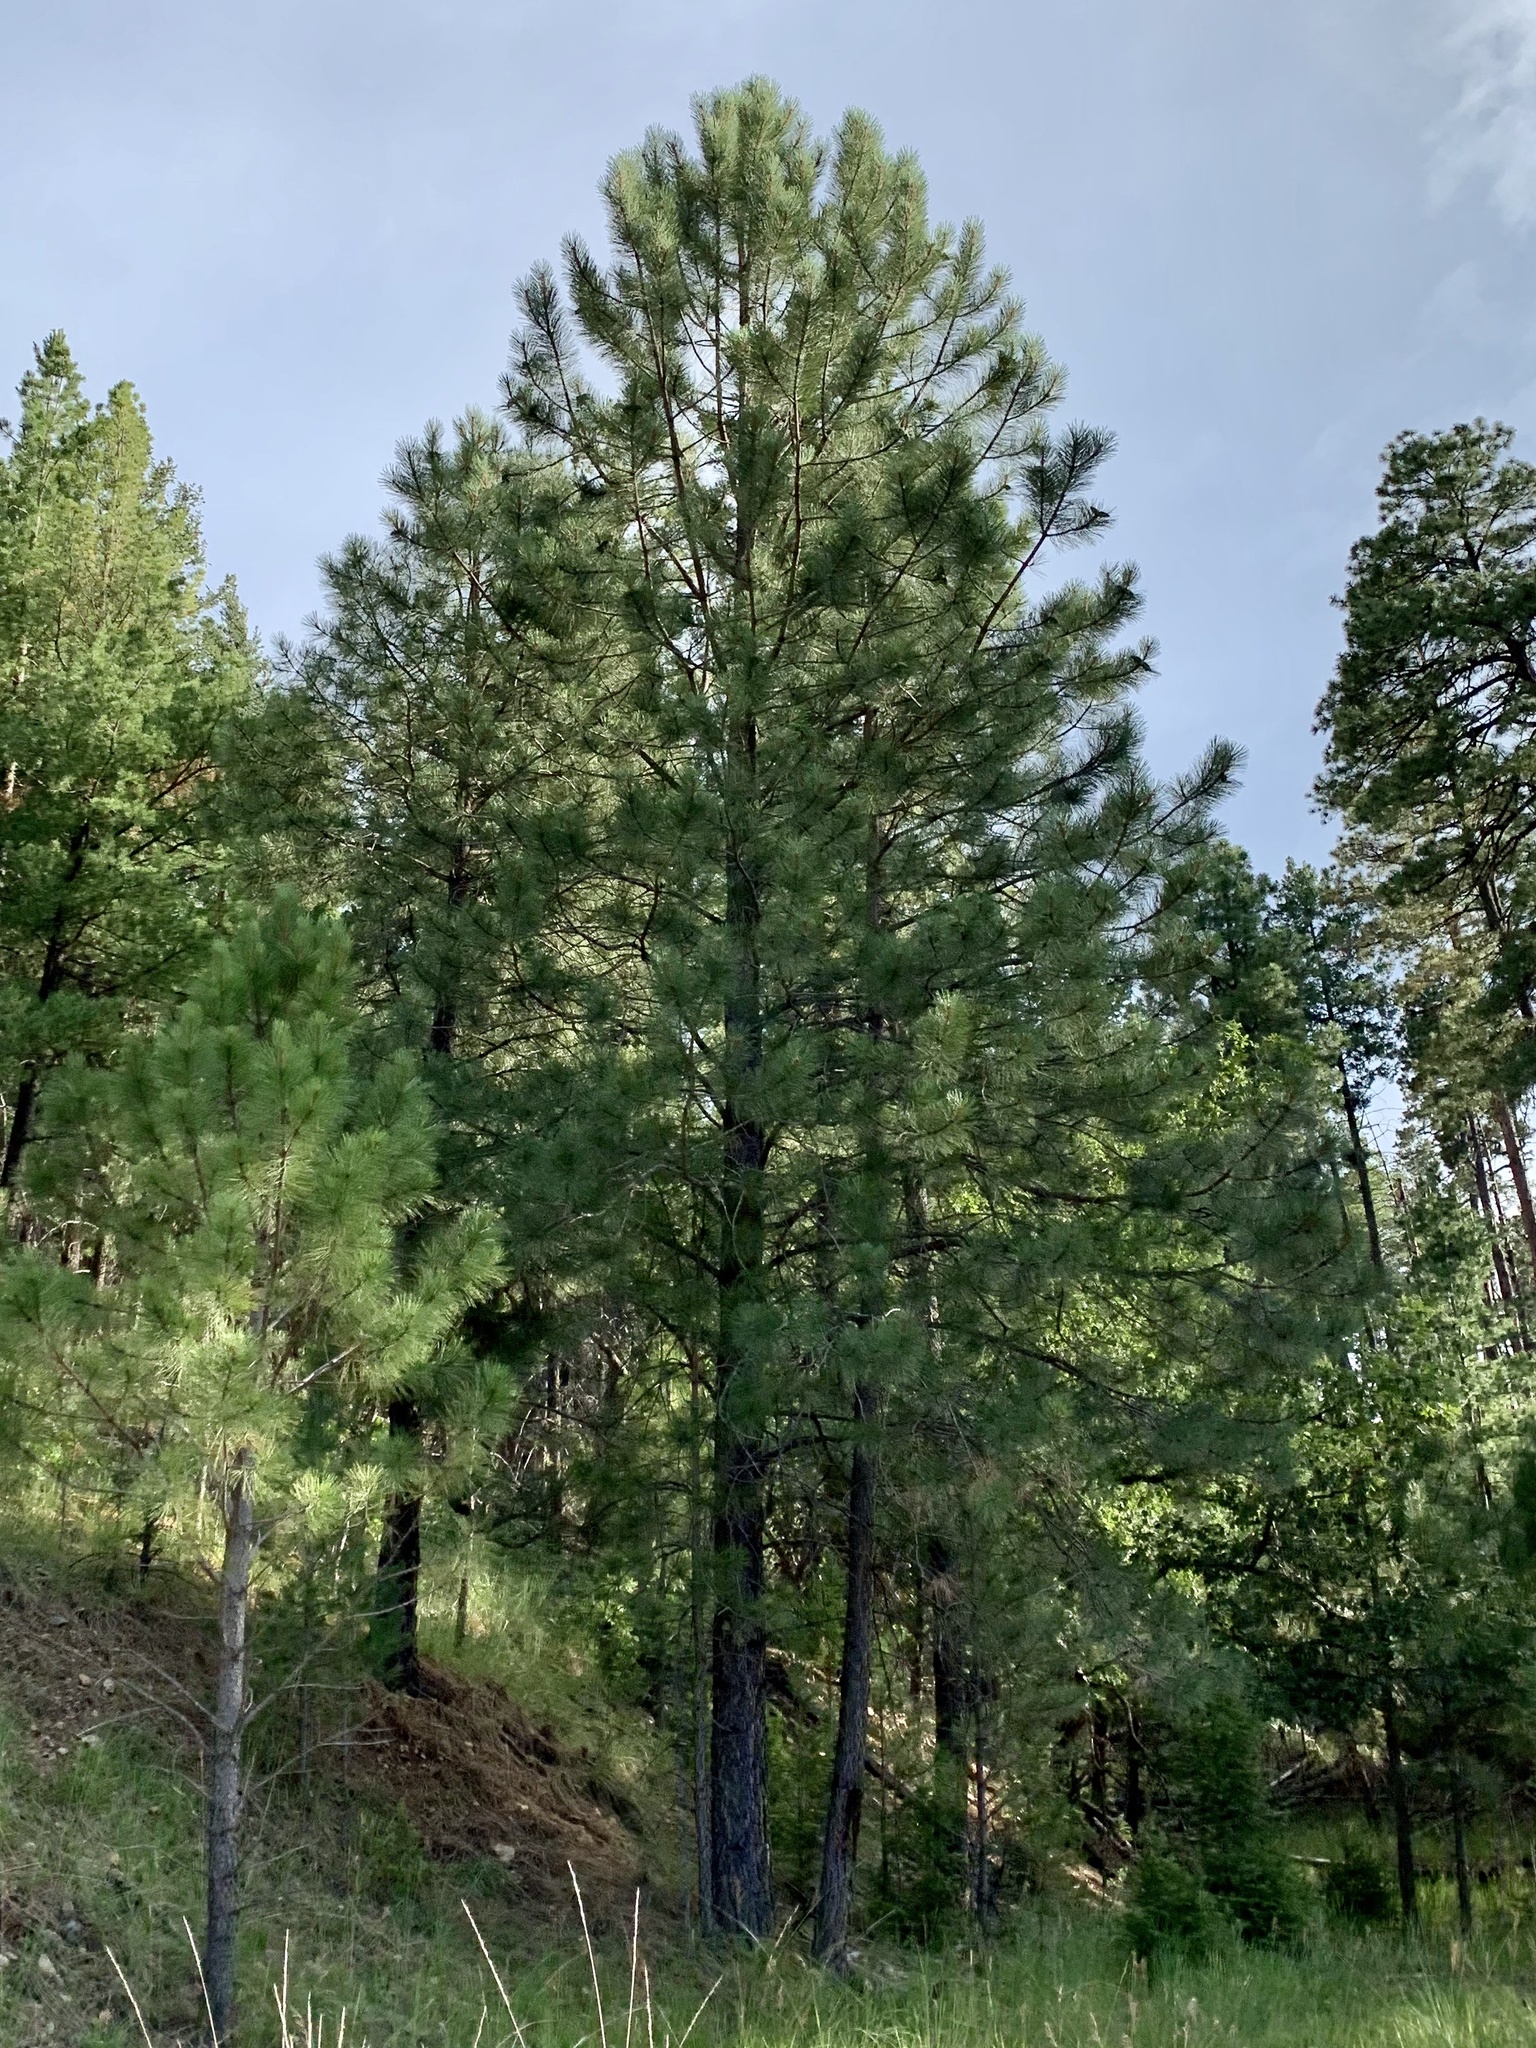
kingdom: Plantae
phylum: Tracheophyta
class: Pinopsida
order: Pinales
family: Pinaceae
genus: Pinus
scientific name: Pinus ponderosa
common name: Western yellow-pine
